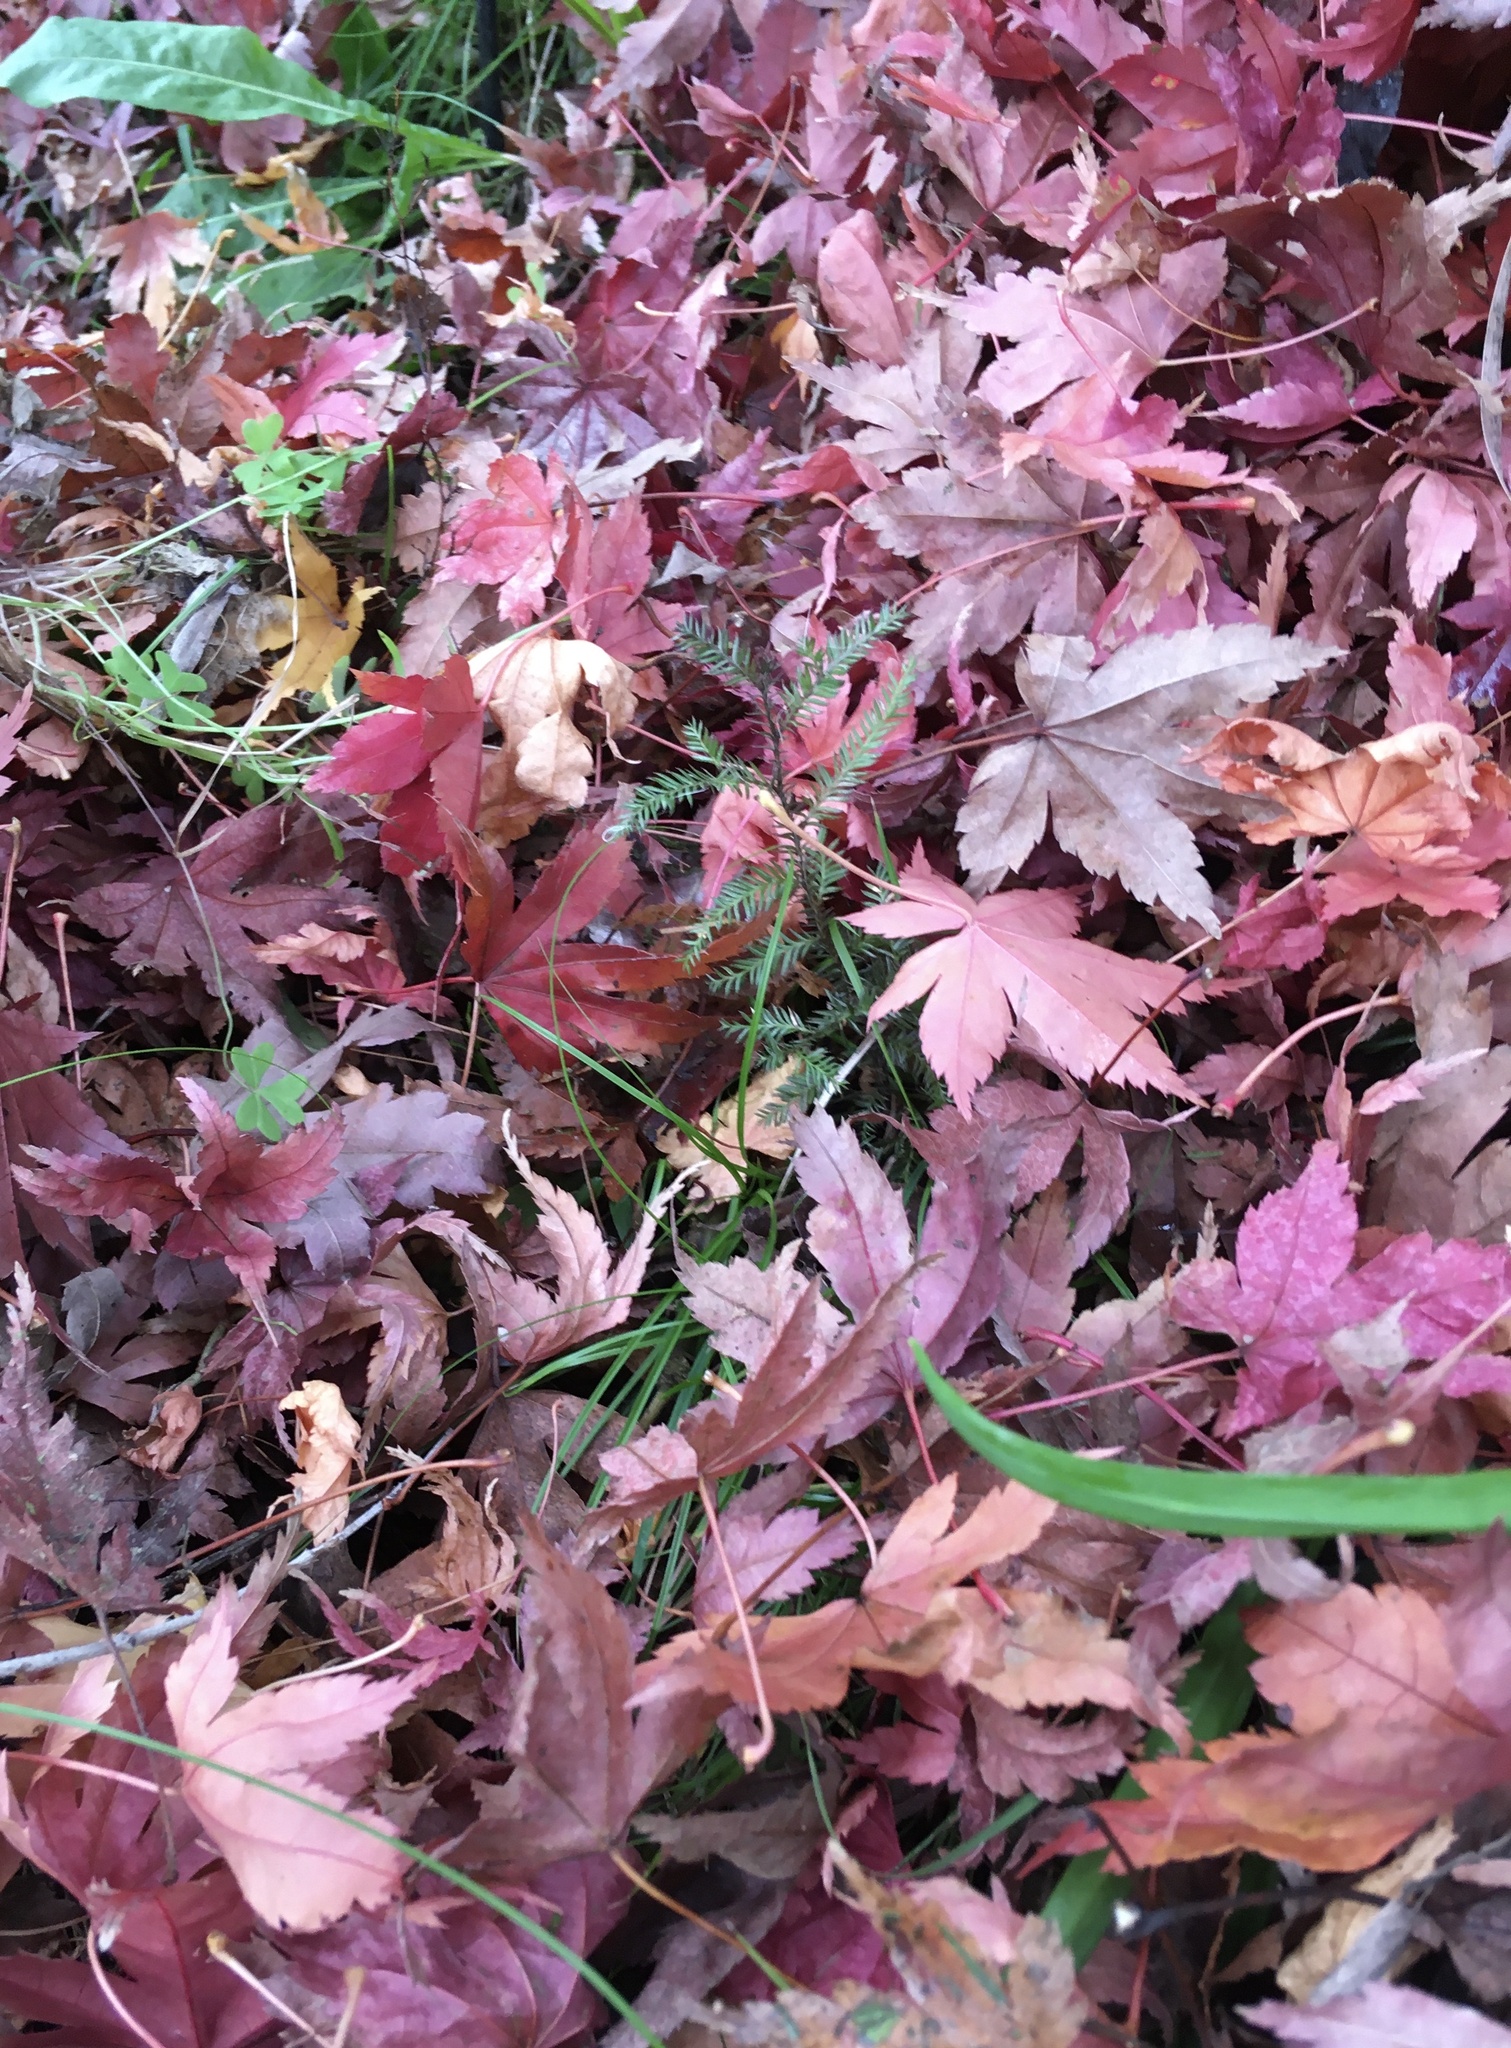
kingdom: Plantae
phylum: Tracheophyta
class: Pinopsida
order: Pinales
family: Podocarpaceae
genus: Dacrycarpus
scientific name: Dacrycarpus dacrydioides
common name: White pine
